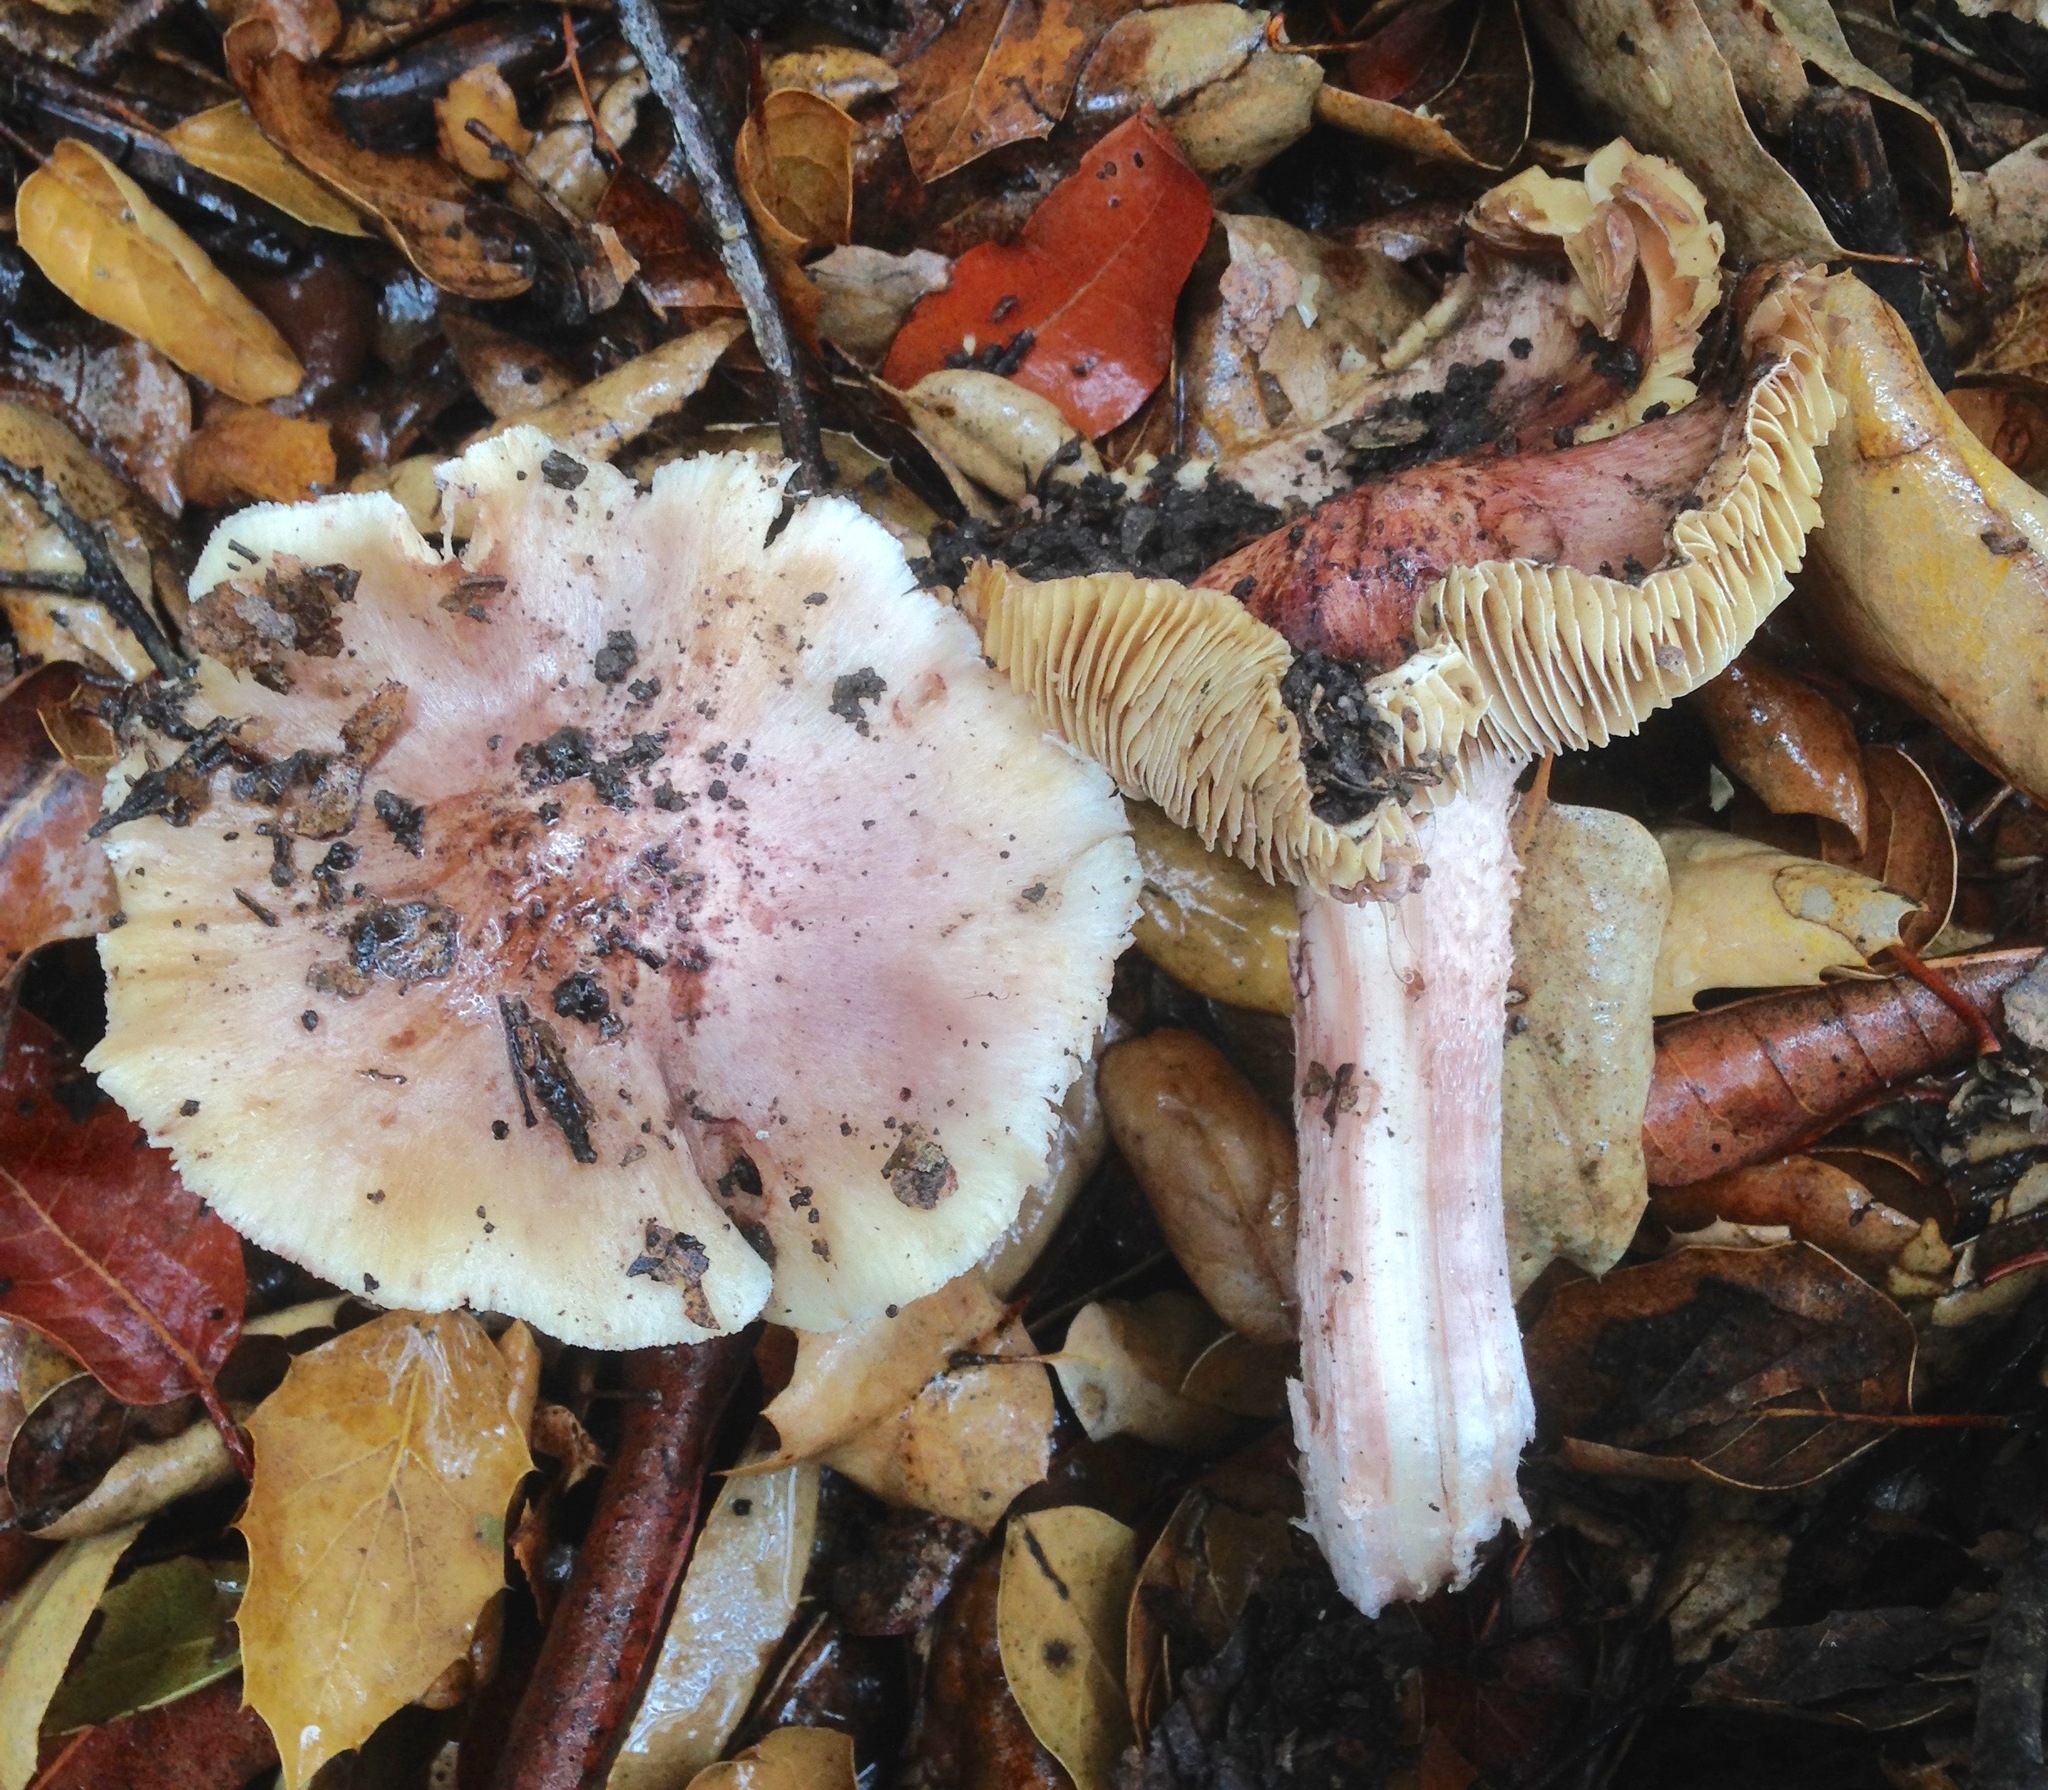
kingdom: Fungi
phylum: Basidiomycota
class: Agaricomycetes
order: Agaricales
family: Inocybaceae
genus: Inosperma
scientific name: Inosperma adaequatum
